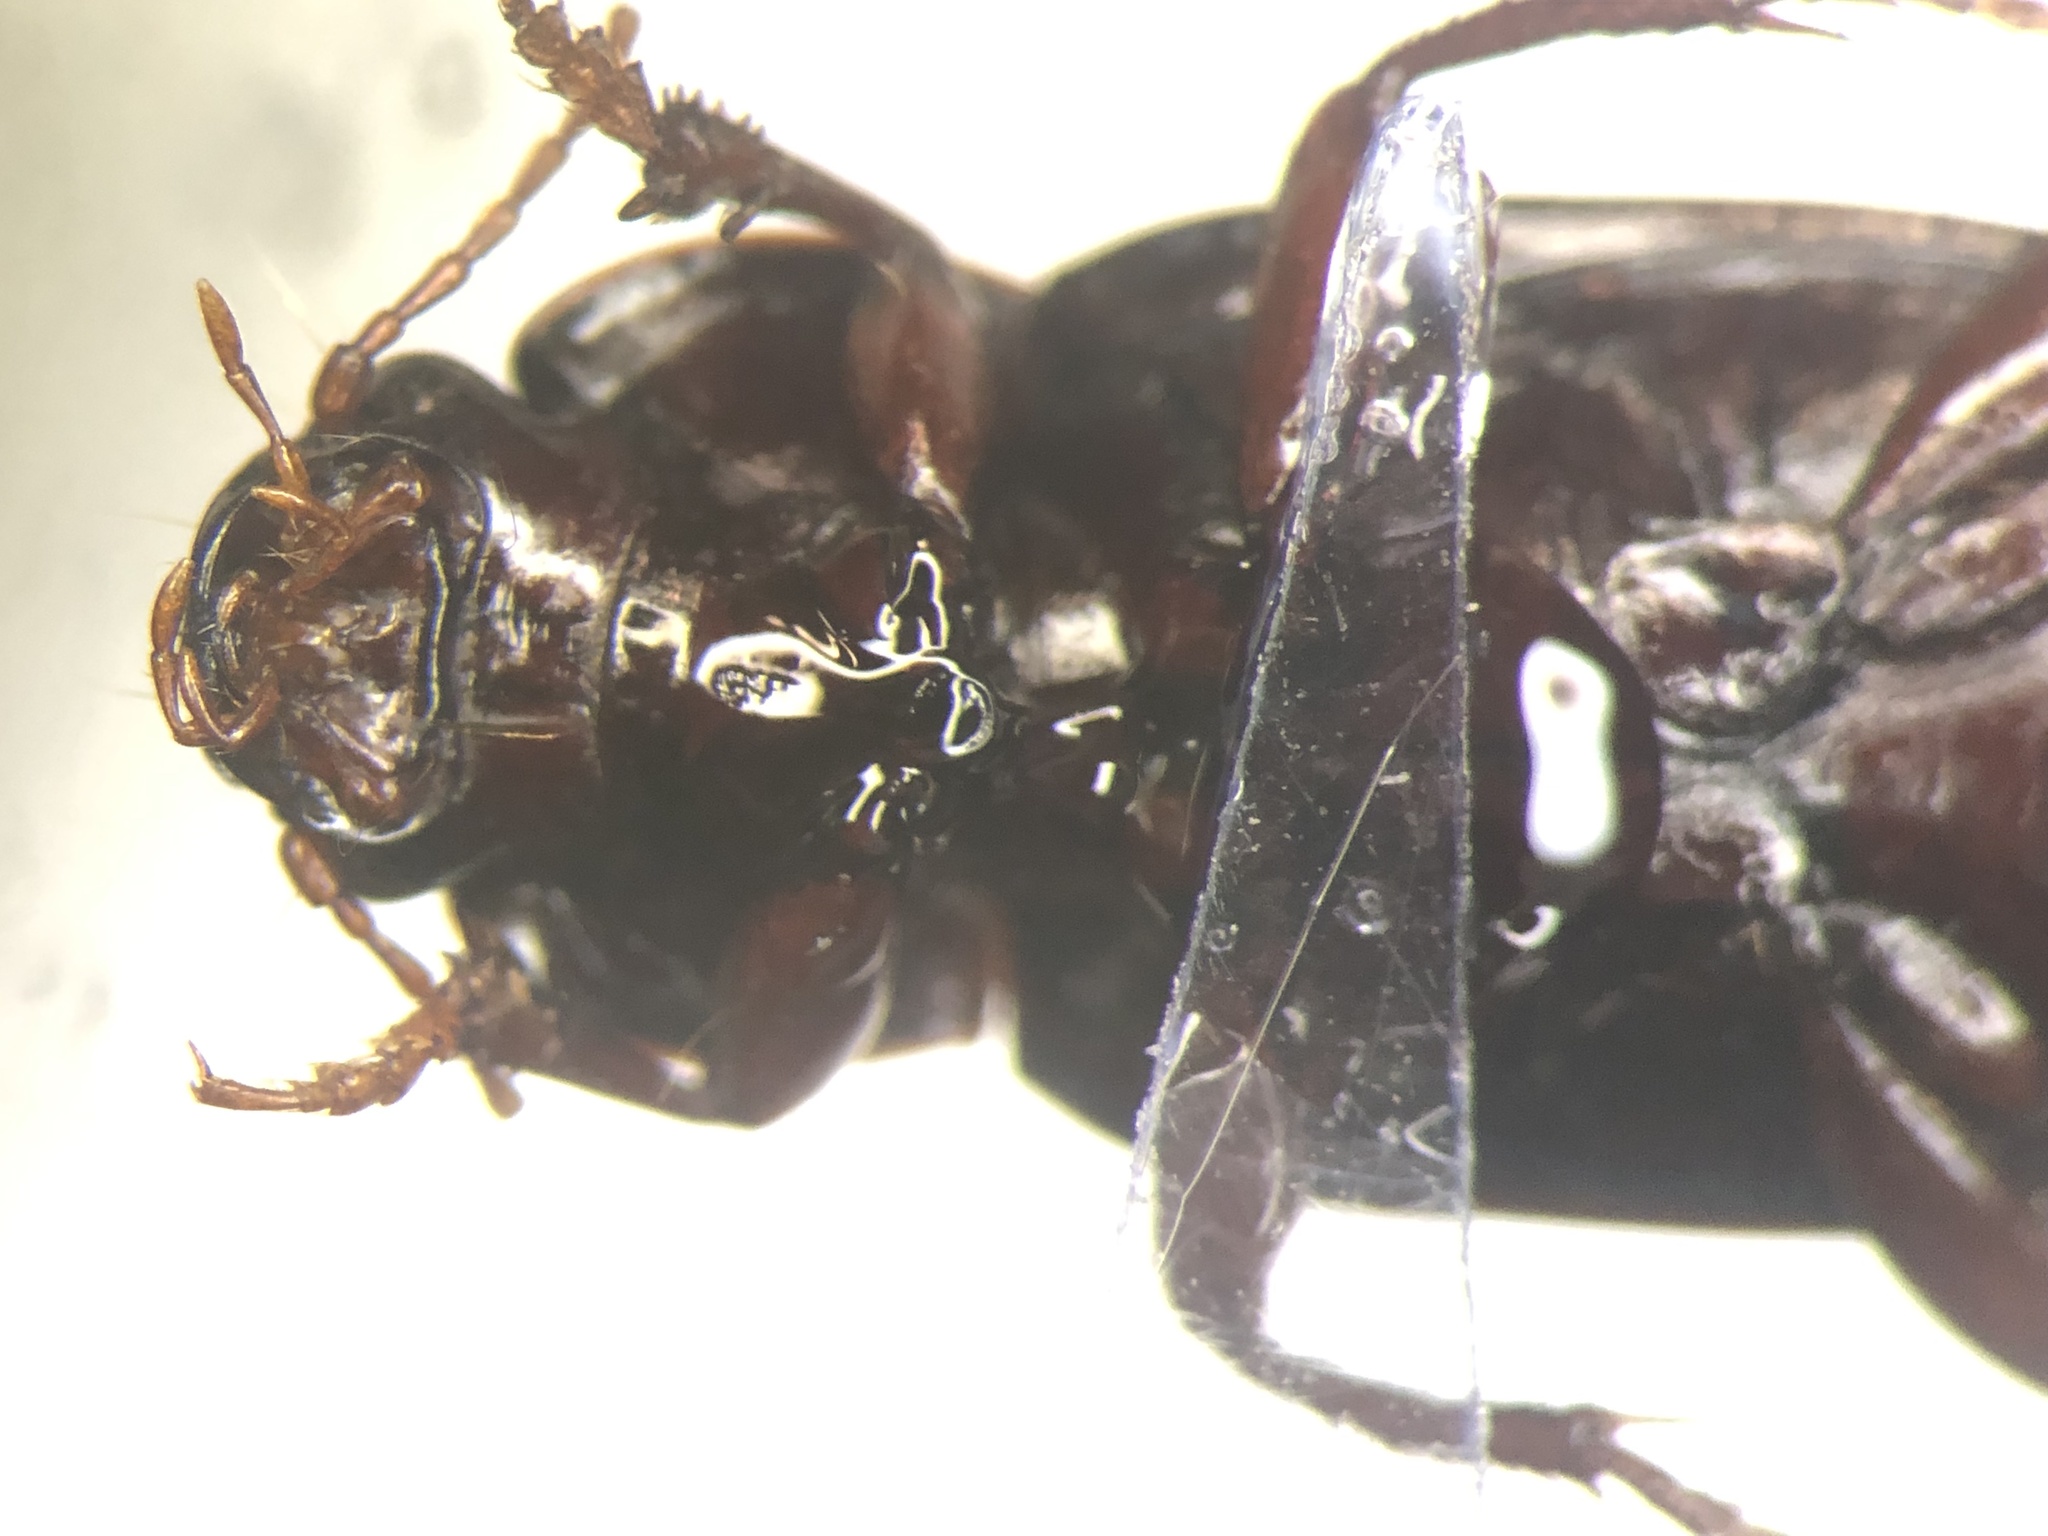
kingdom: Animalia
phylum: Arthropoda
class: Insecta
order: Coleoptera
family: Carabidae
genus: Amara
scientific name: Amara latior
